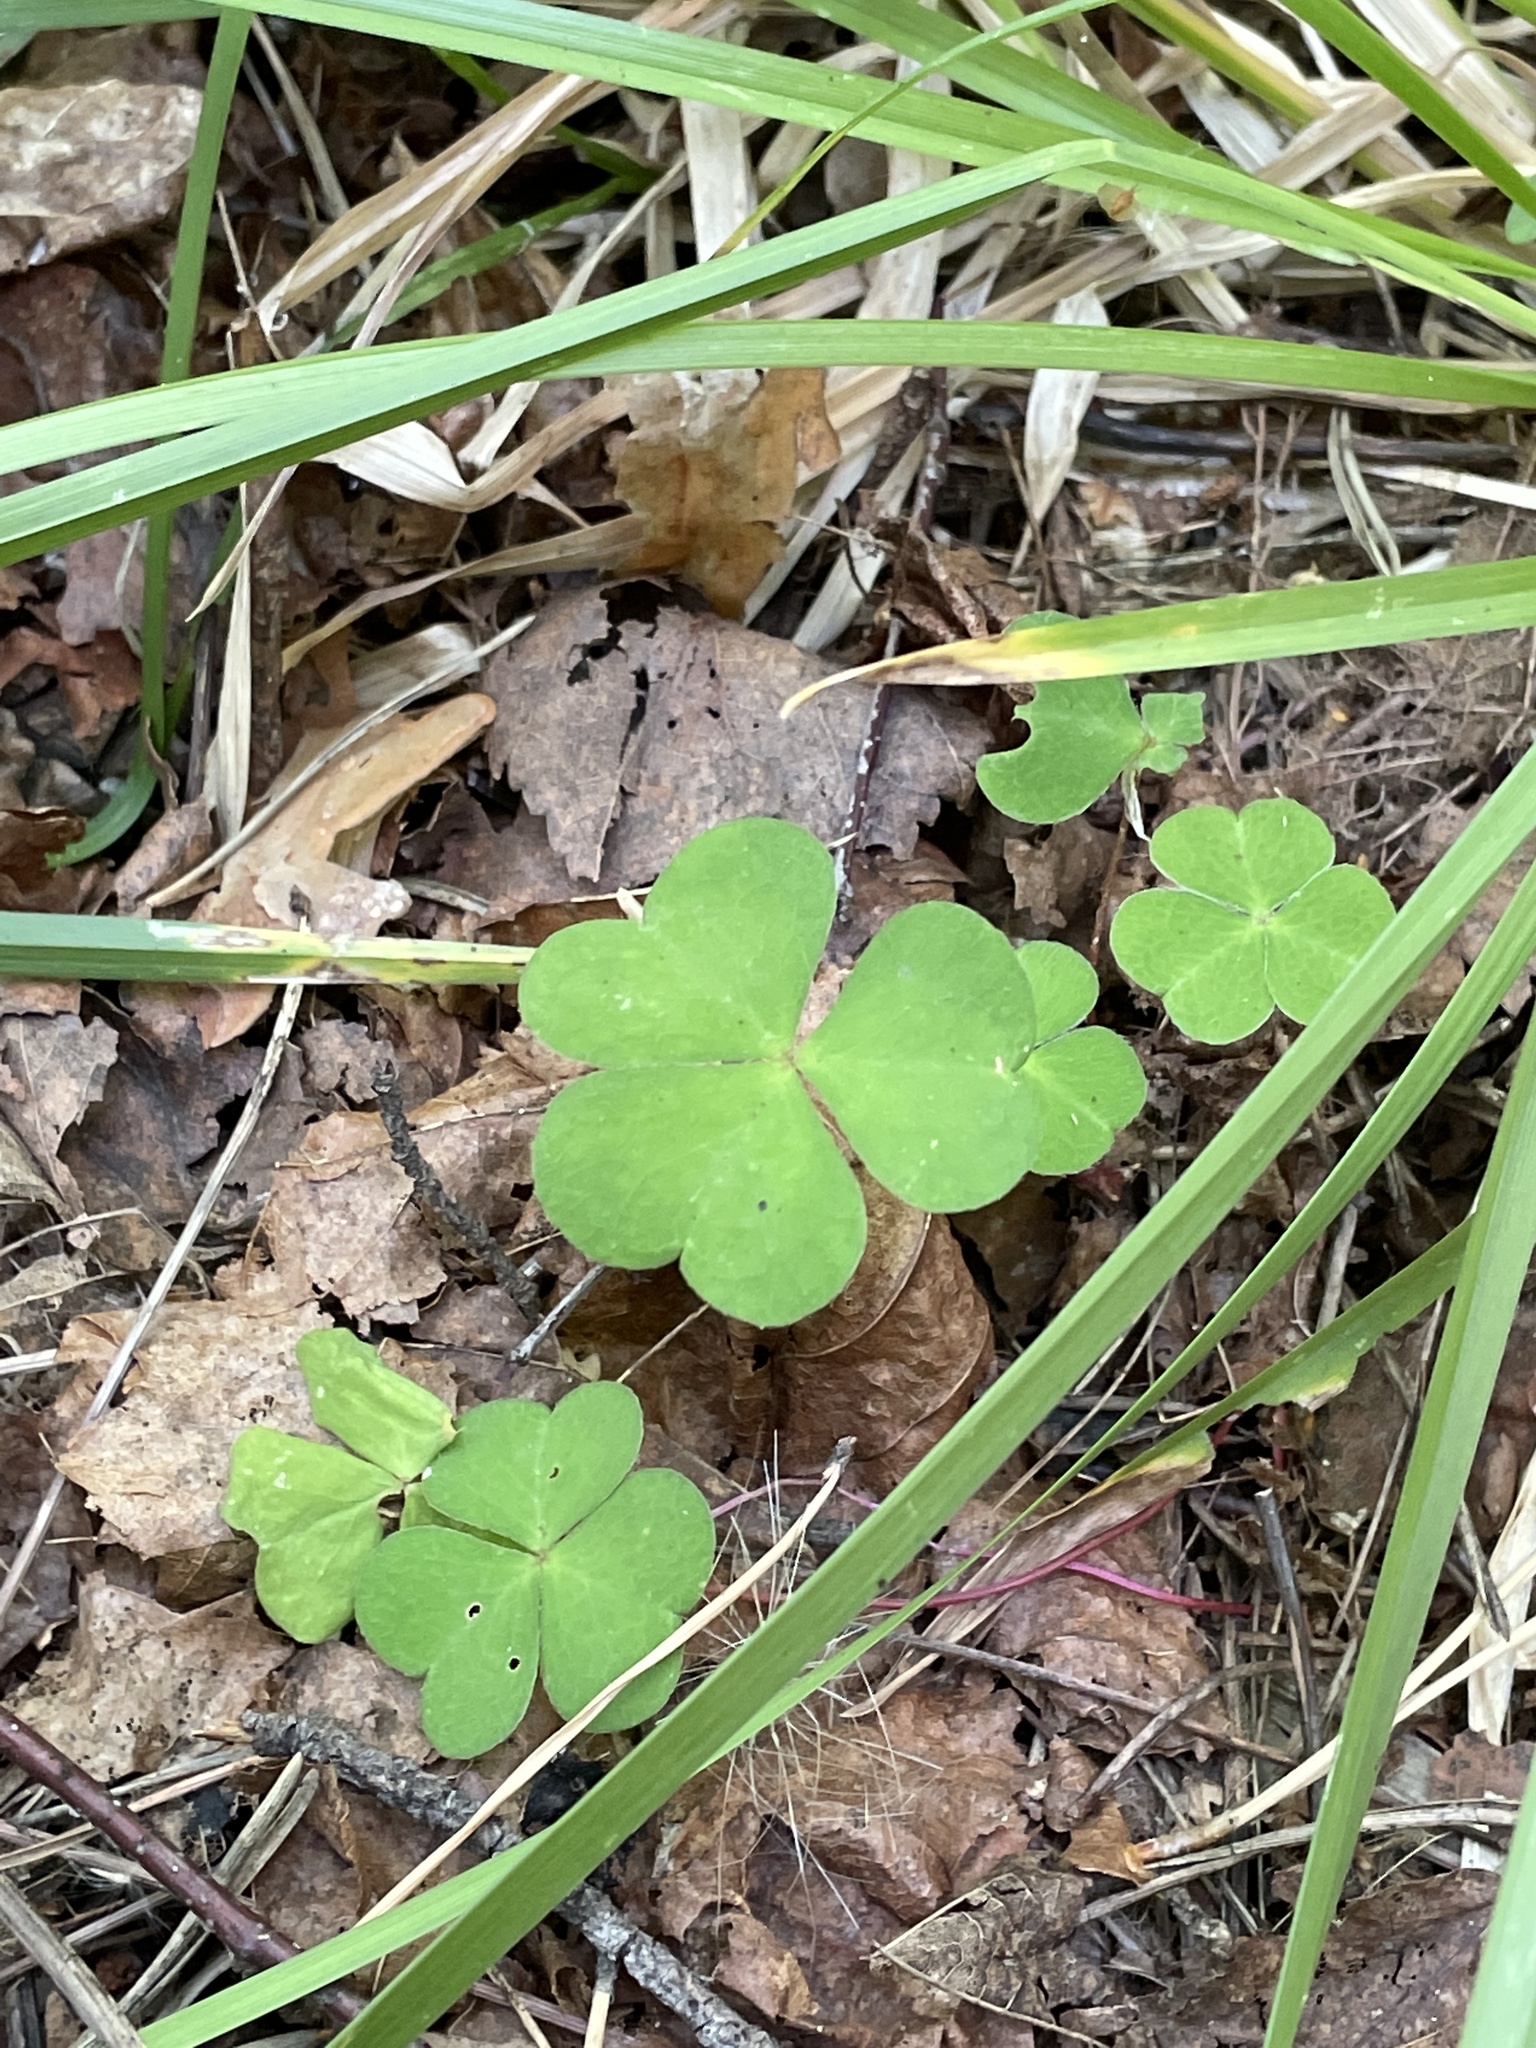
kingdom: Plantae
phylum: Tracheophyta
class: Magnoliopsida
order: Oxalidales
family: Oxalidaceae
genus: Oxalis
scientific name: Oxalis acetosella
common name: Wood-sorrel
